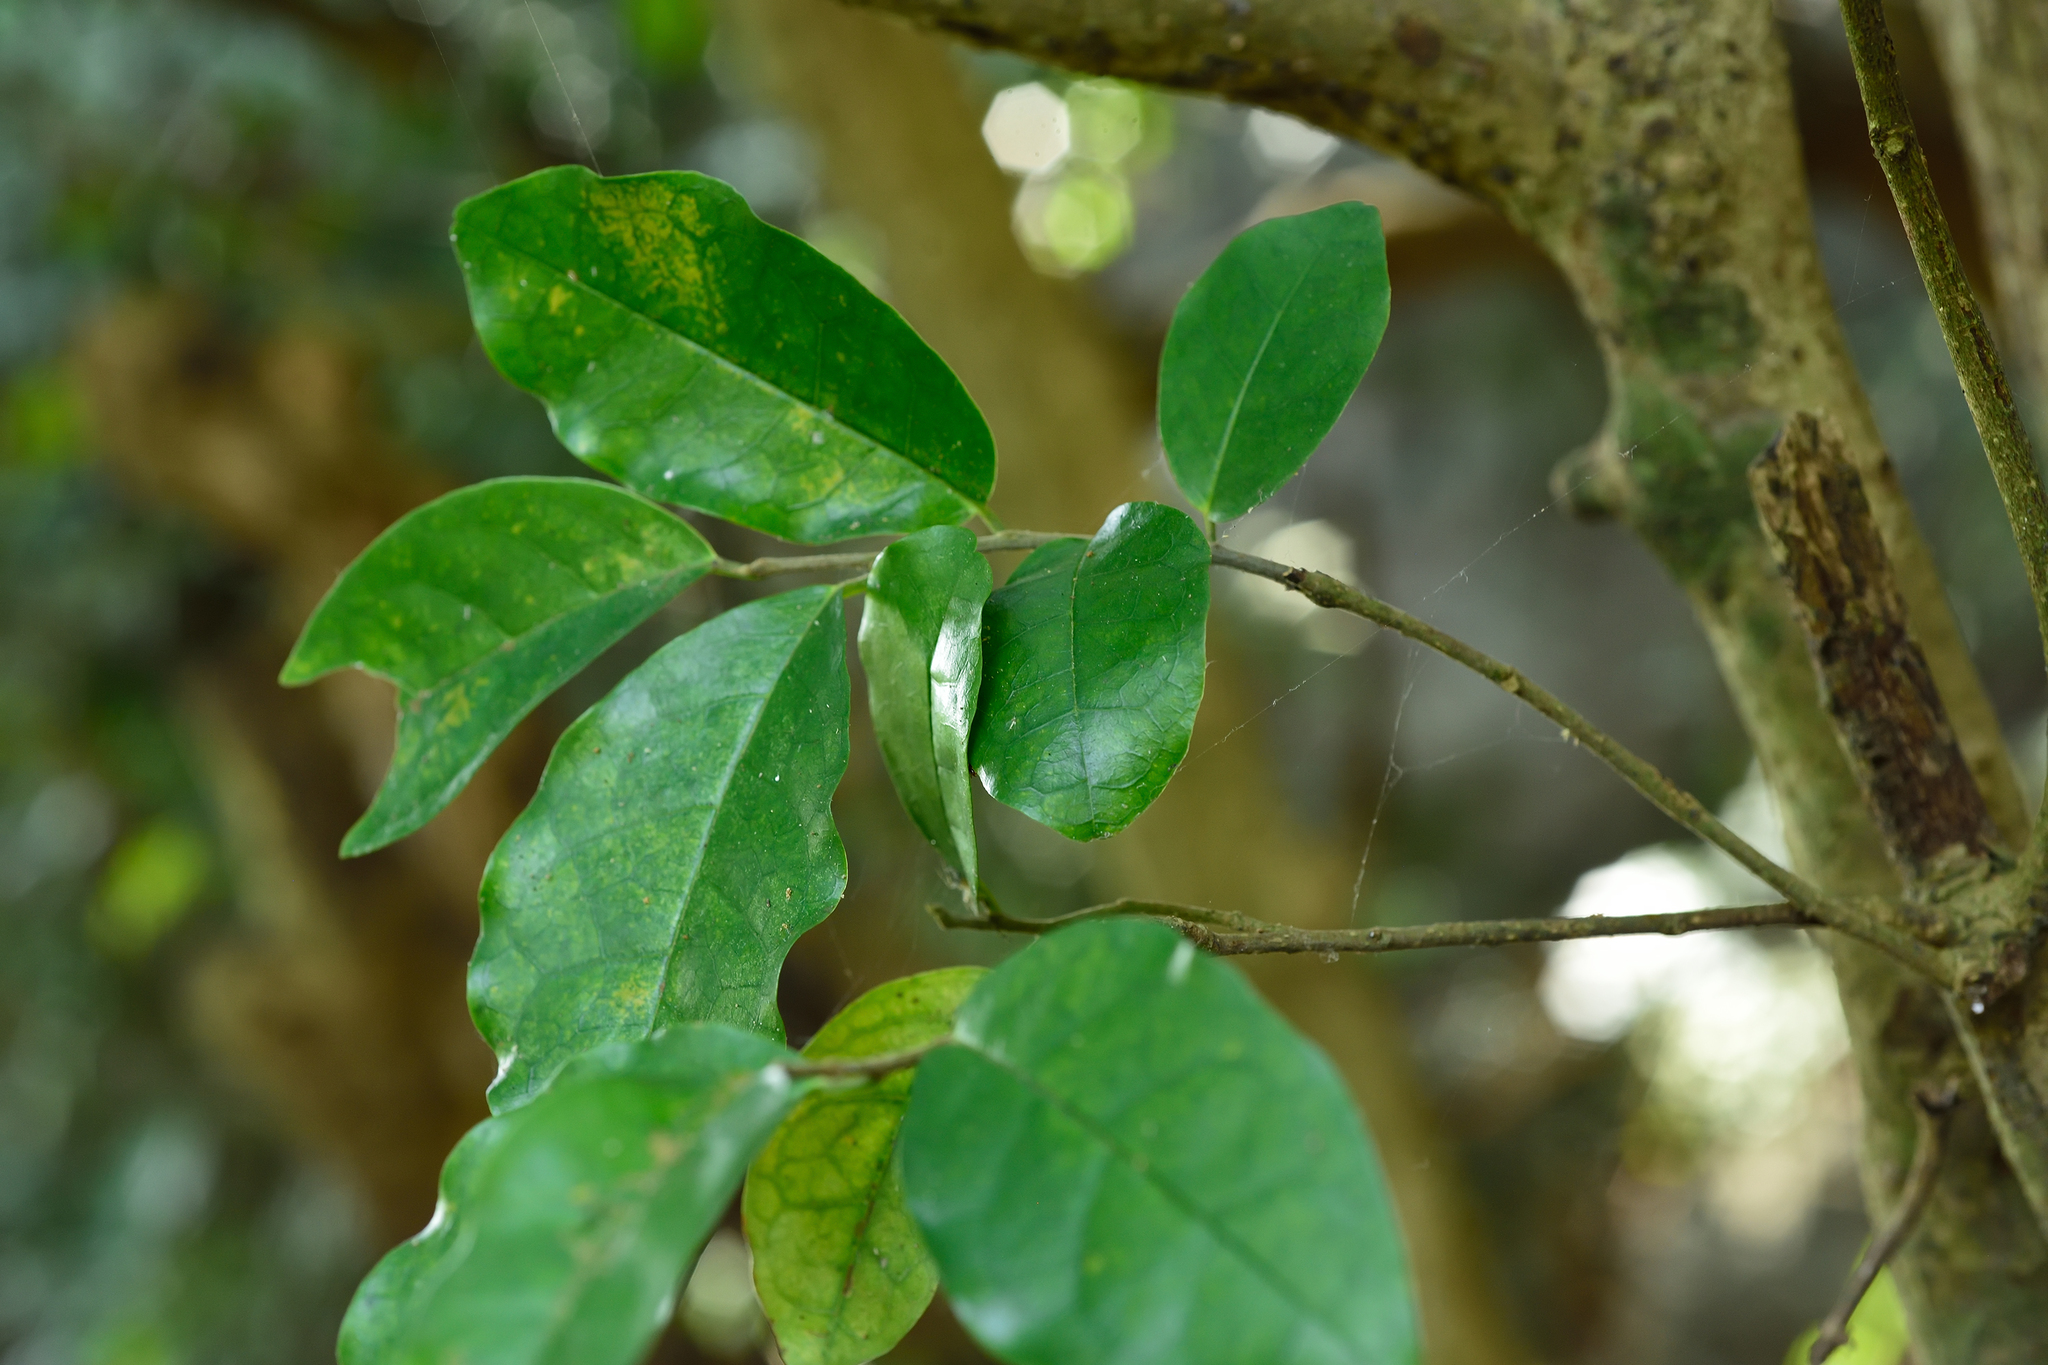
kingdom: Plantae
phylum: Tracheophyta
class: Magnoliopsida
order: Malpighiales
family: Phyllanthaceae
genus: Antidesma
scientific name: Antidesma montanum
